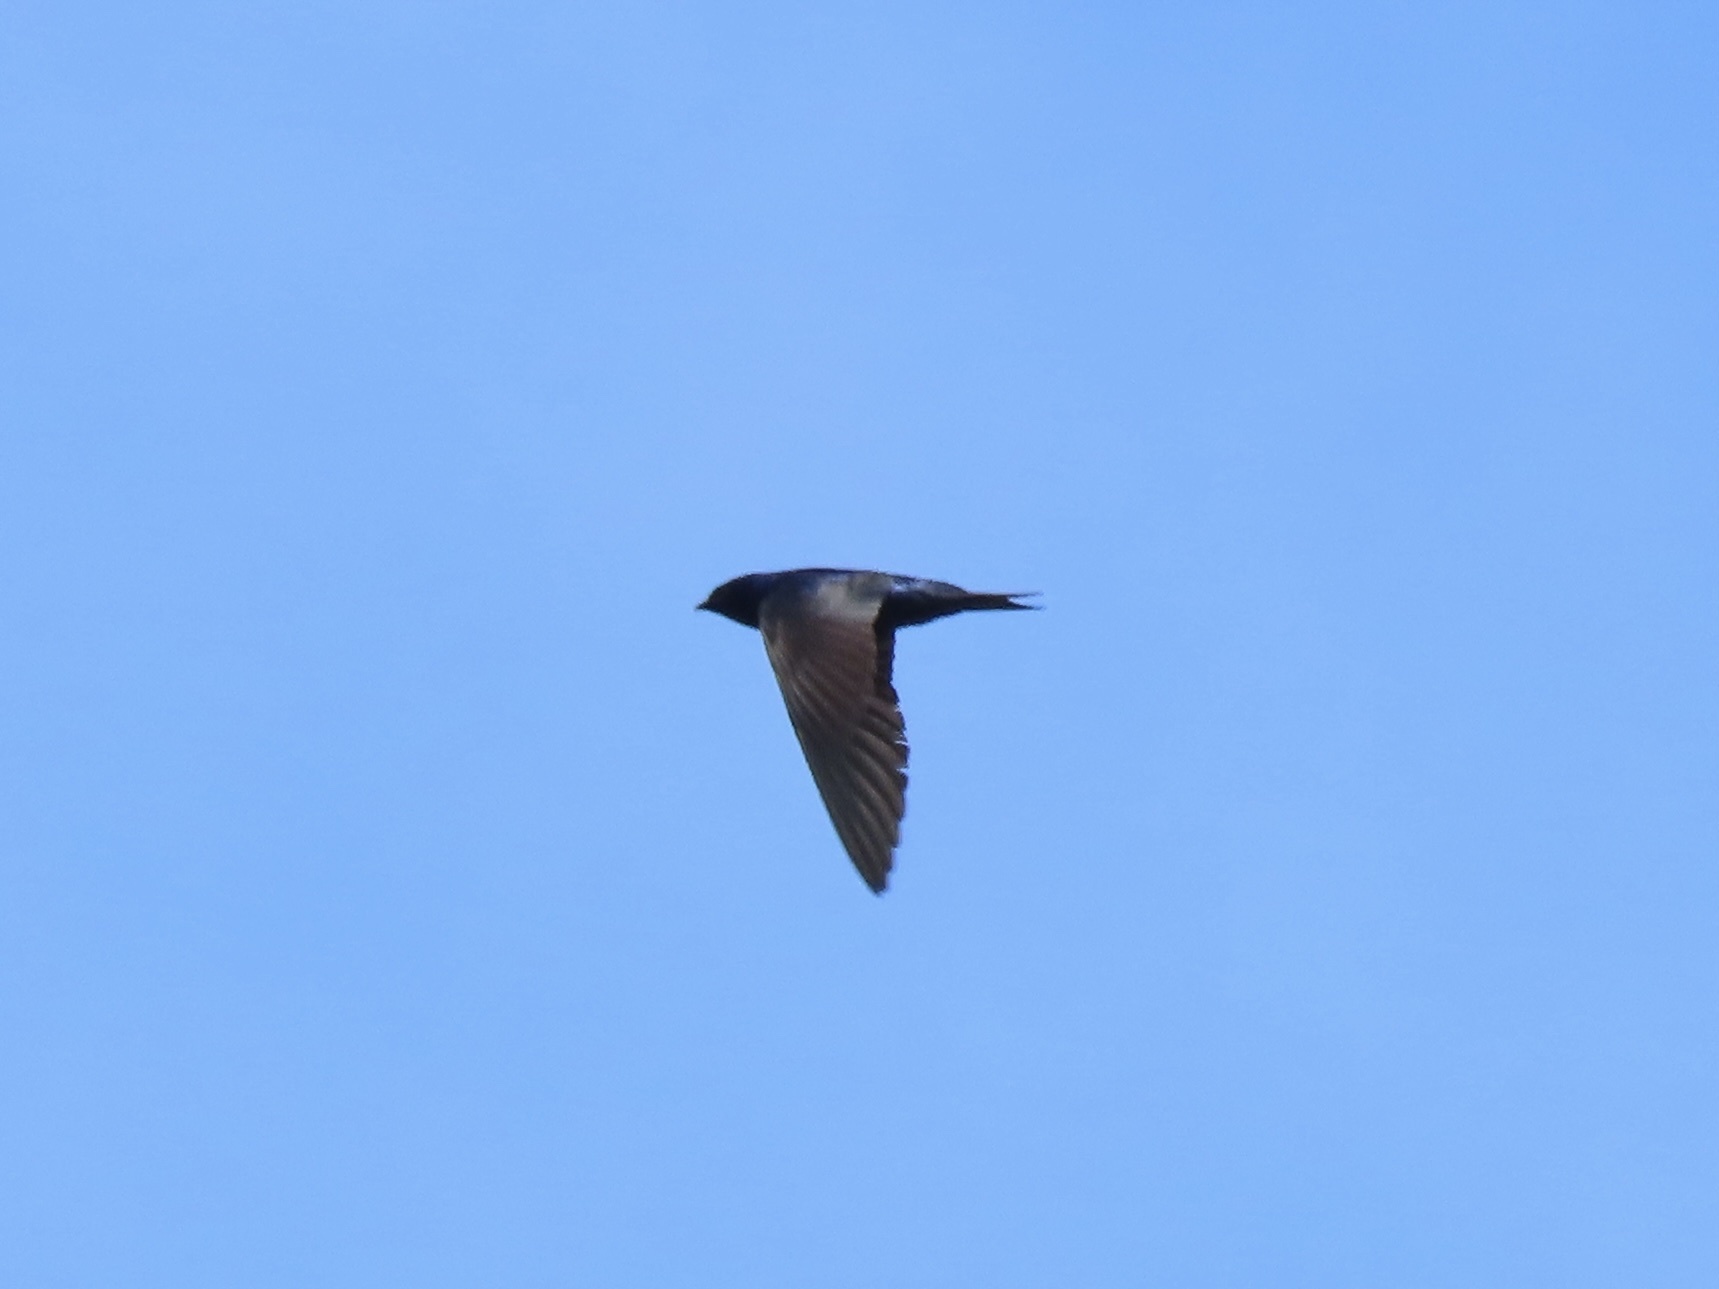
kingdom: Animalia
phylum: Chordata
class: Aves
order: Passeriformes
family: Hirundinidae
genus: Progne
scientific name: Progne subis
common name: Purple martin
